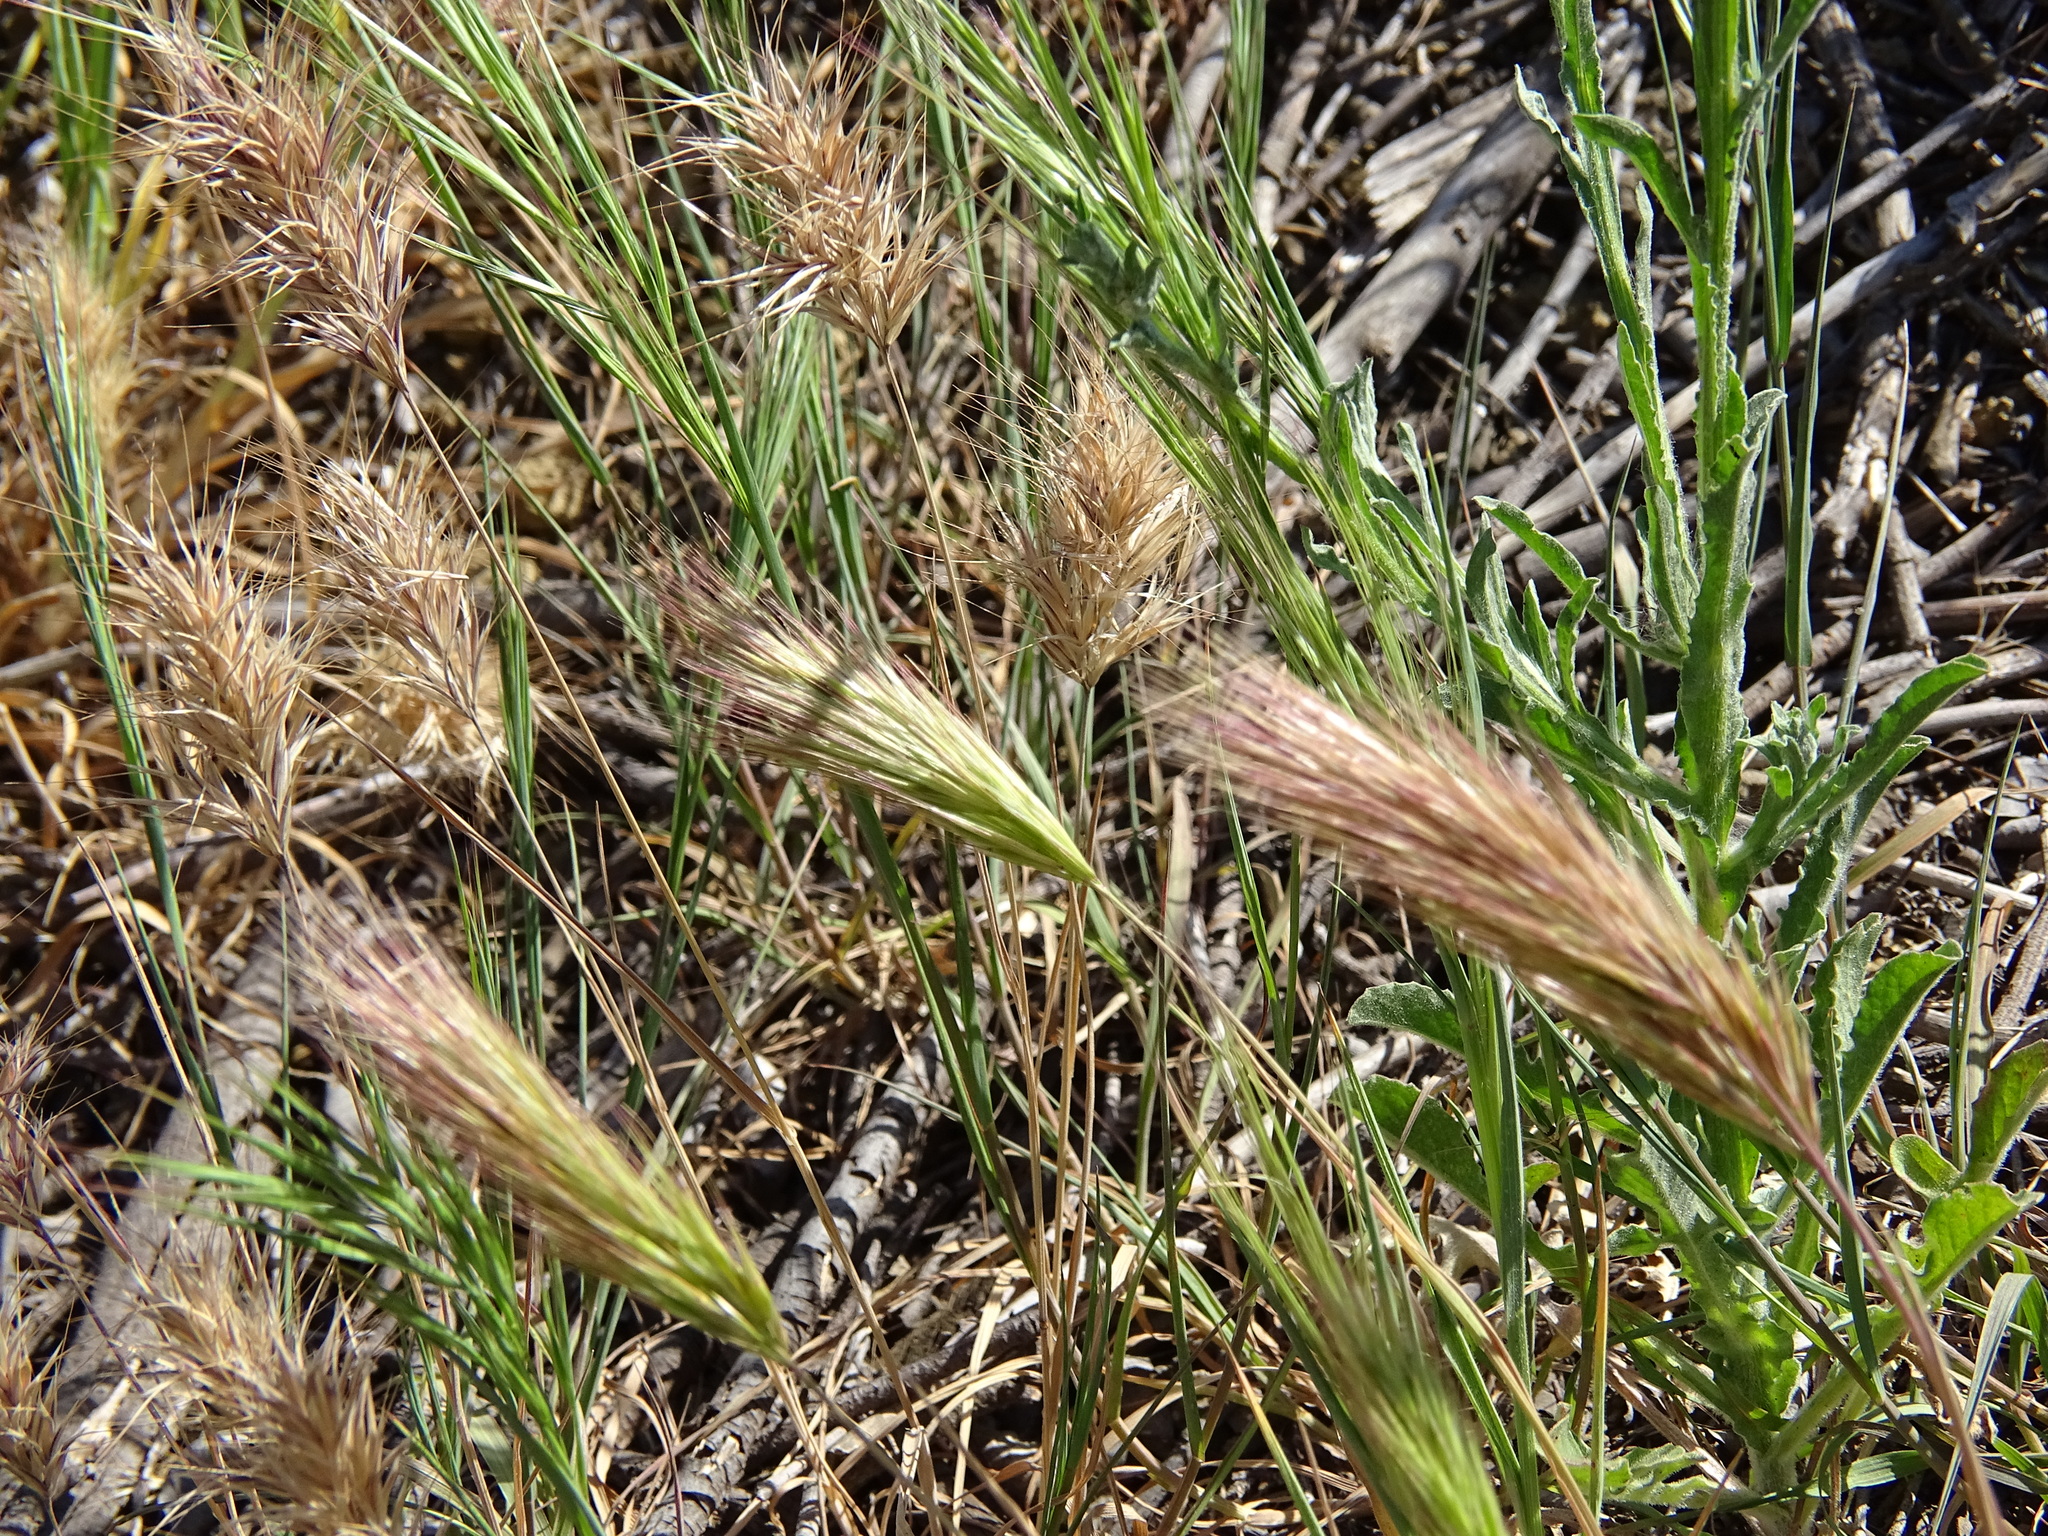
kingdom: Plantae
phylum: Tracheophyta
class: Liliopsida
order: Poales
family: Poaceae
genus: Bromus
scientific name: Bromus madritensis
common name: Compact brome
